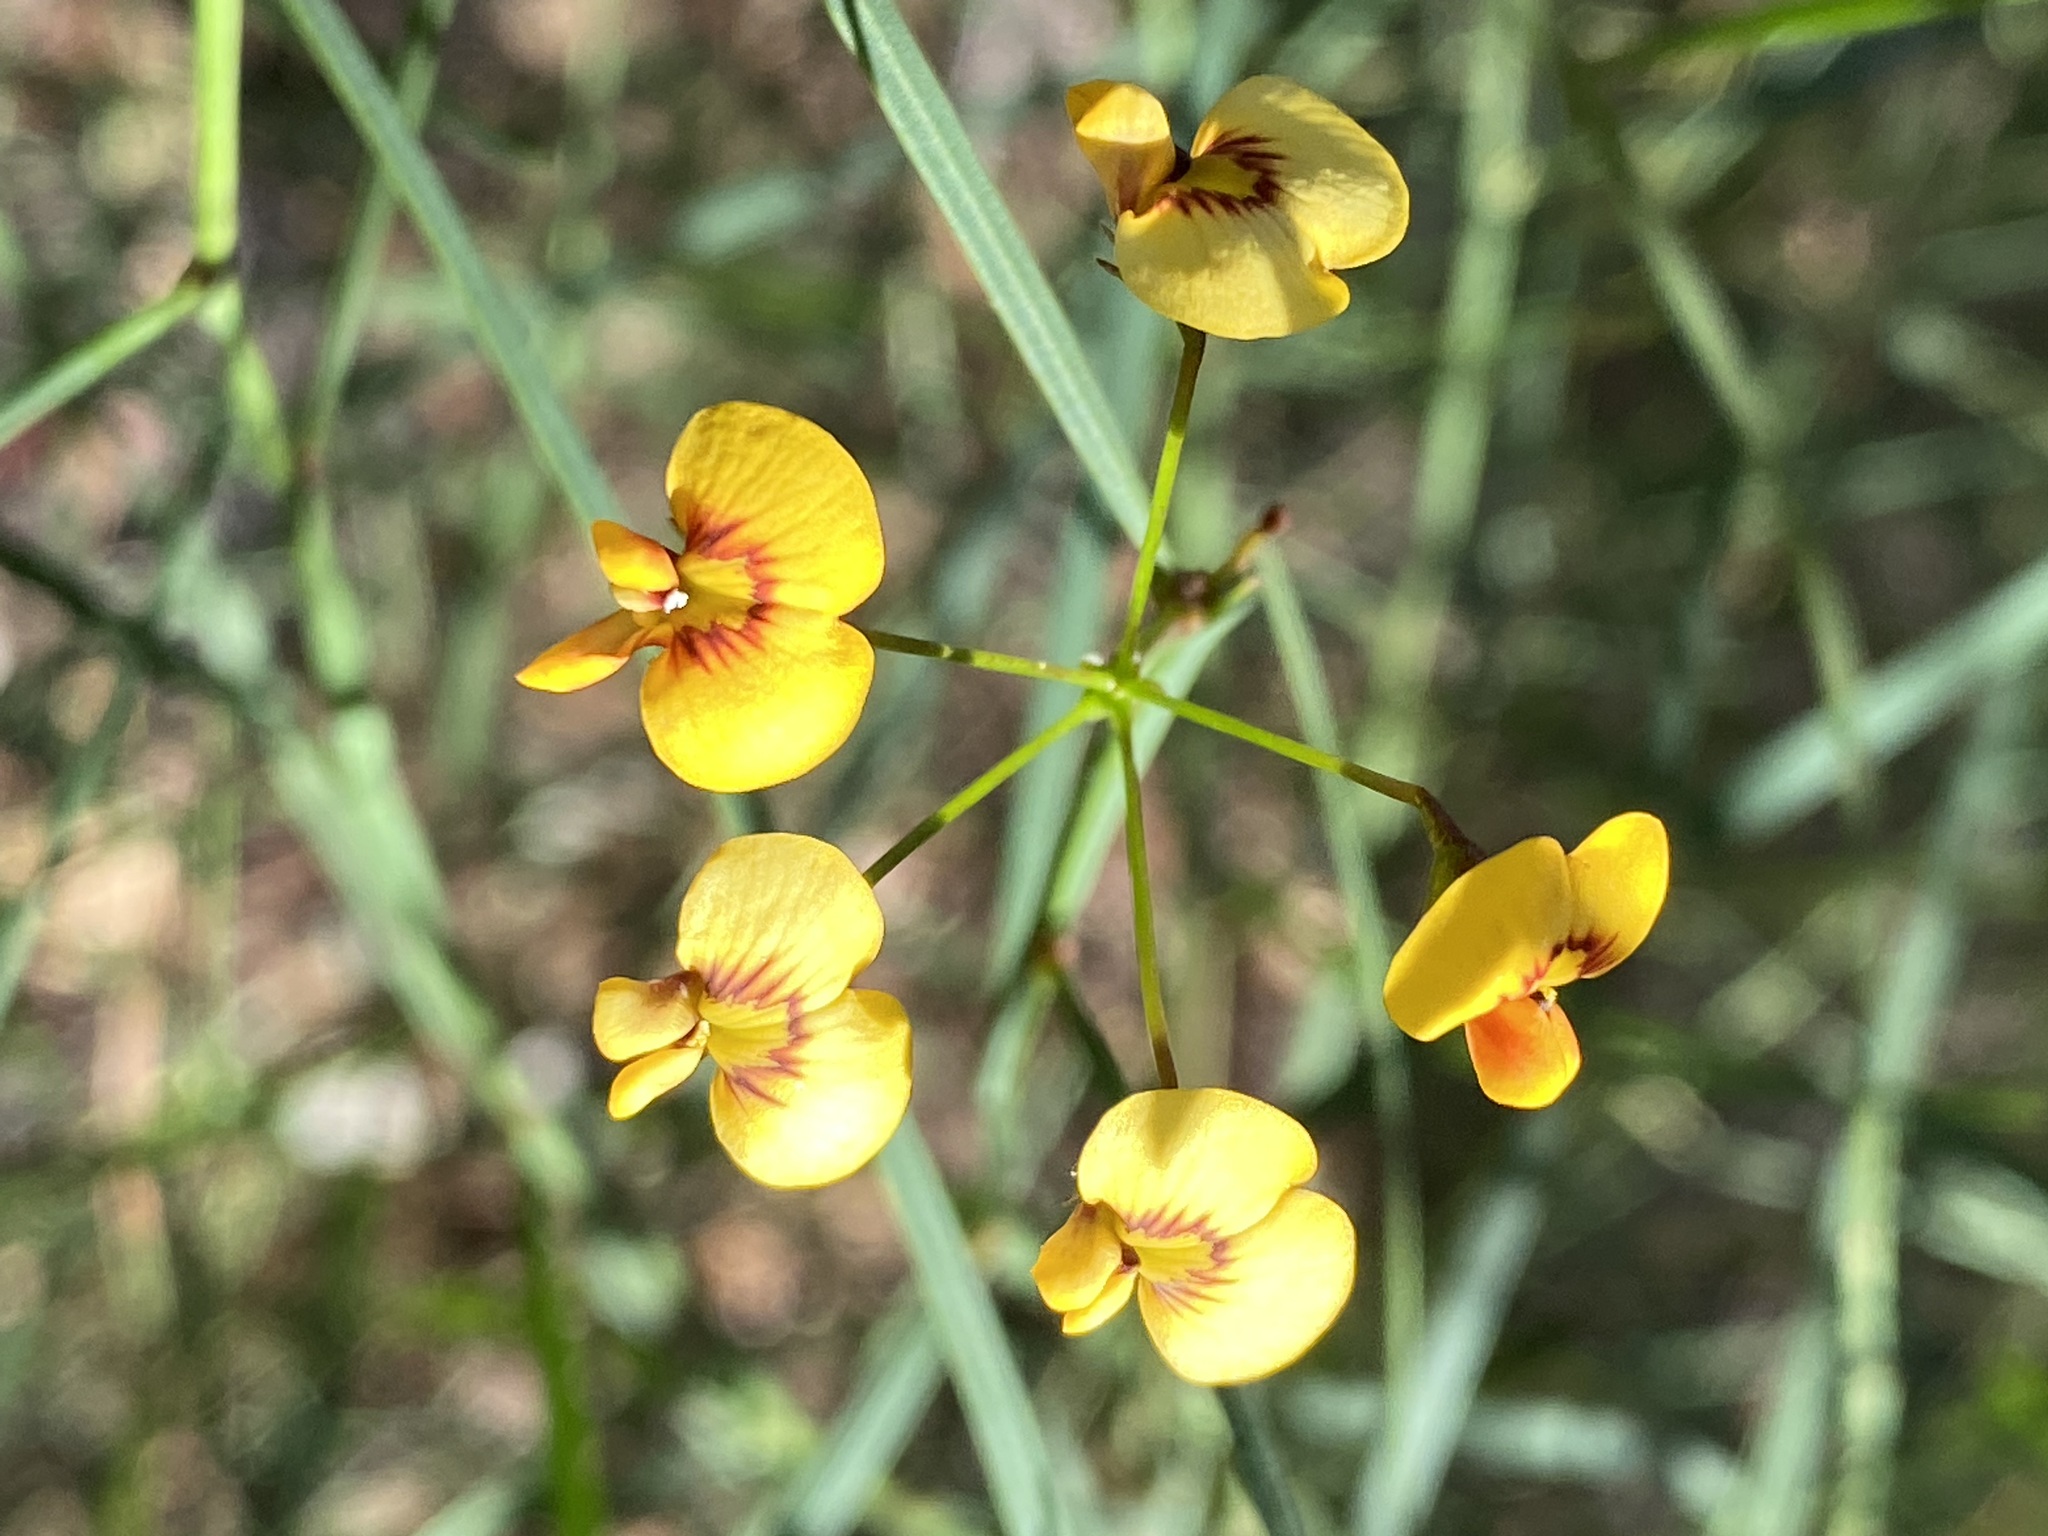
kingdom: Plantae
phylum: Tracheophyta
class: Magnoliopsida
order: Fabales
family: Fabaceae
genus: Daviesia
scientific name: Daviesia wyattiana
